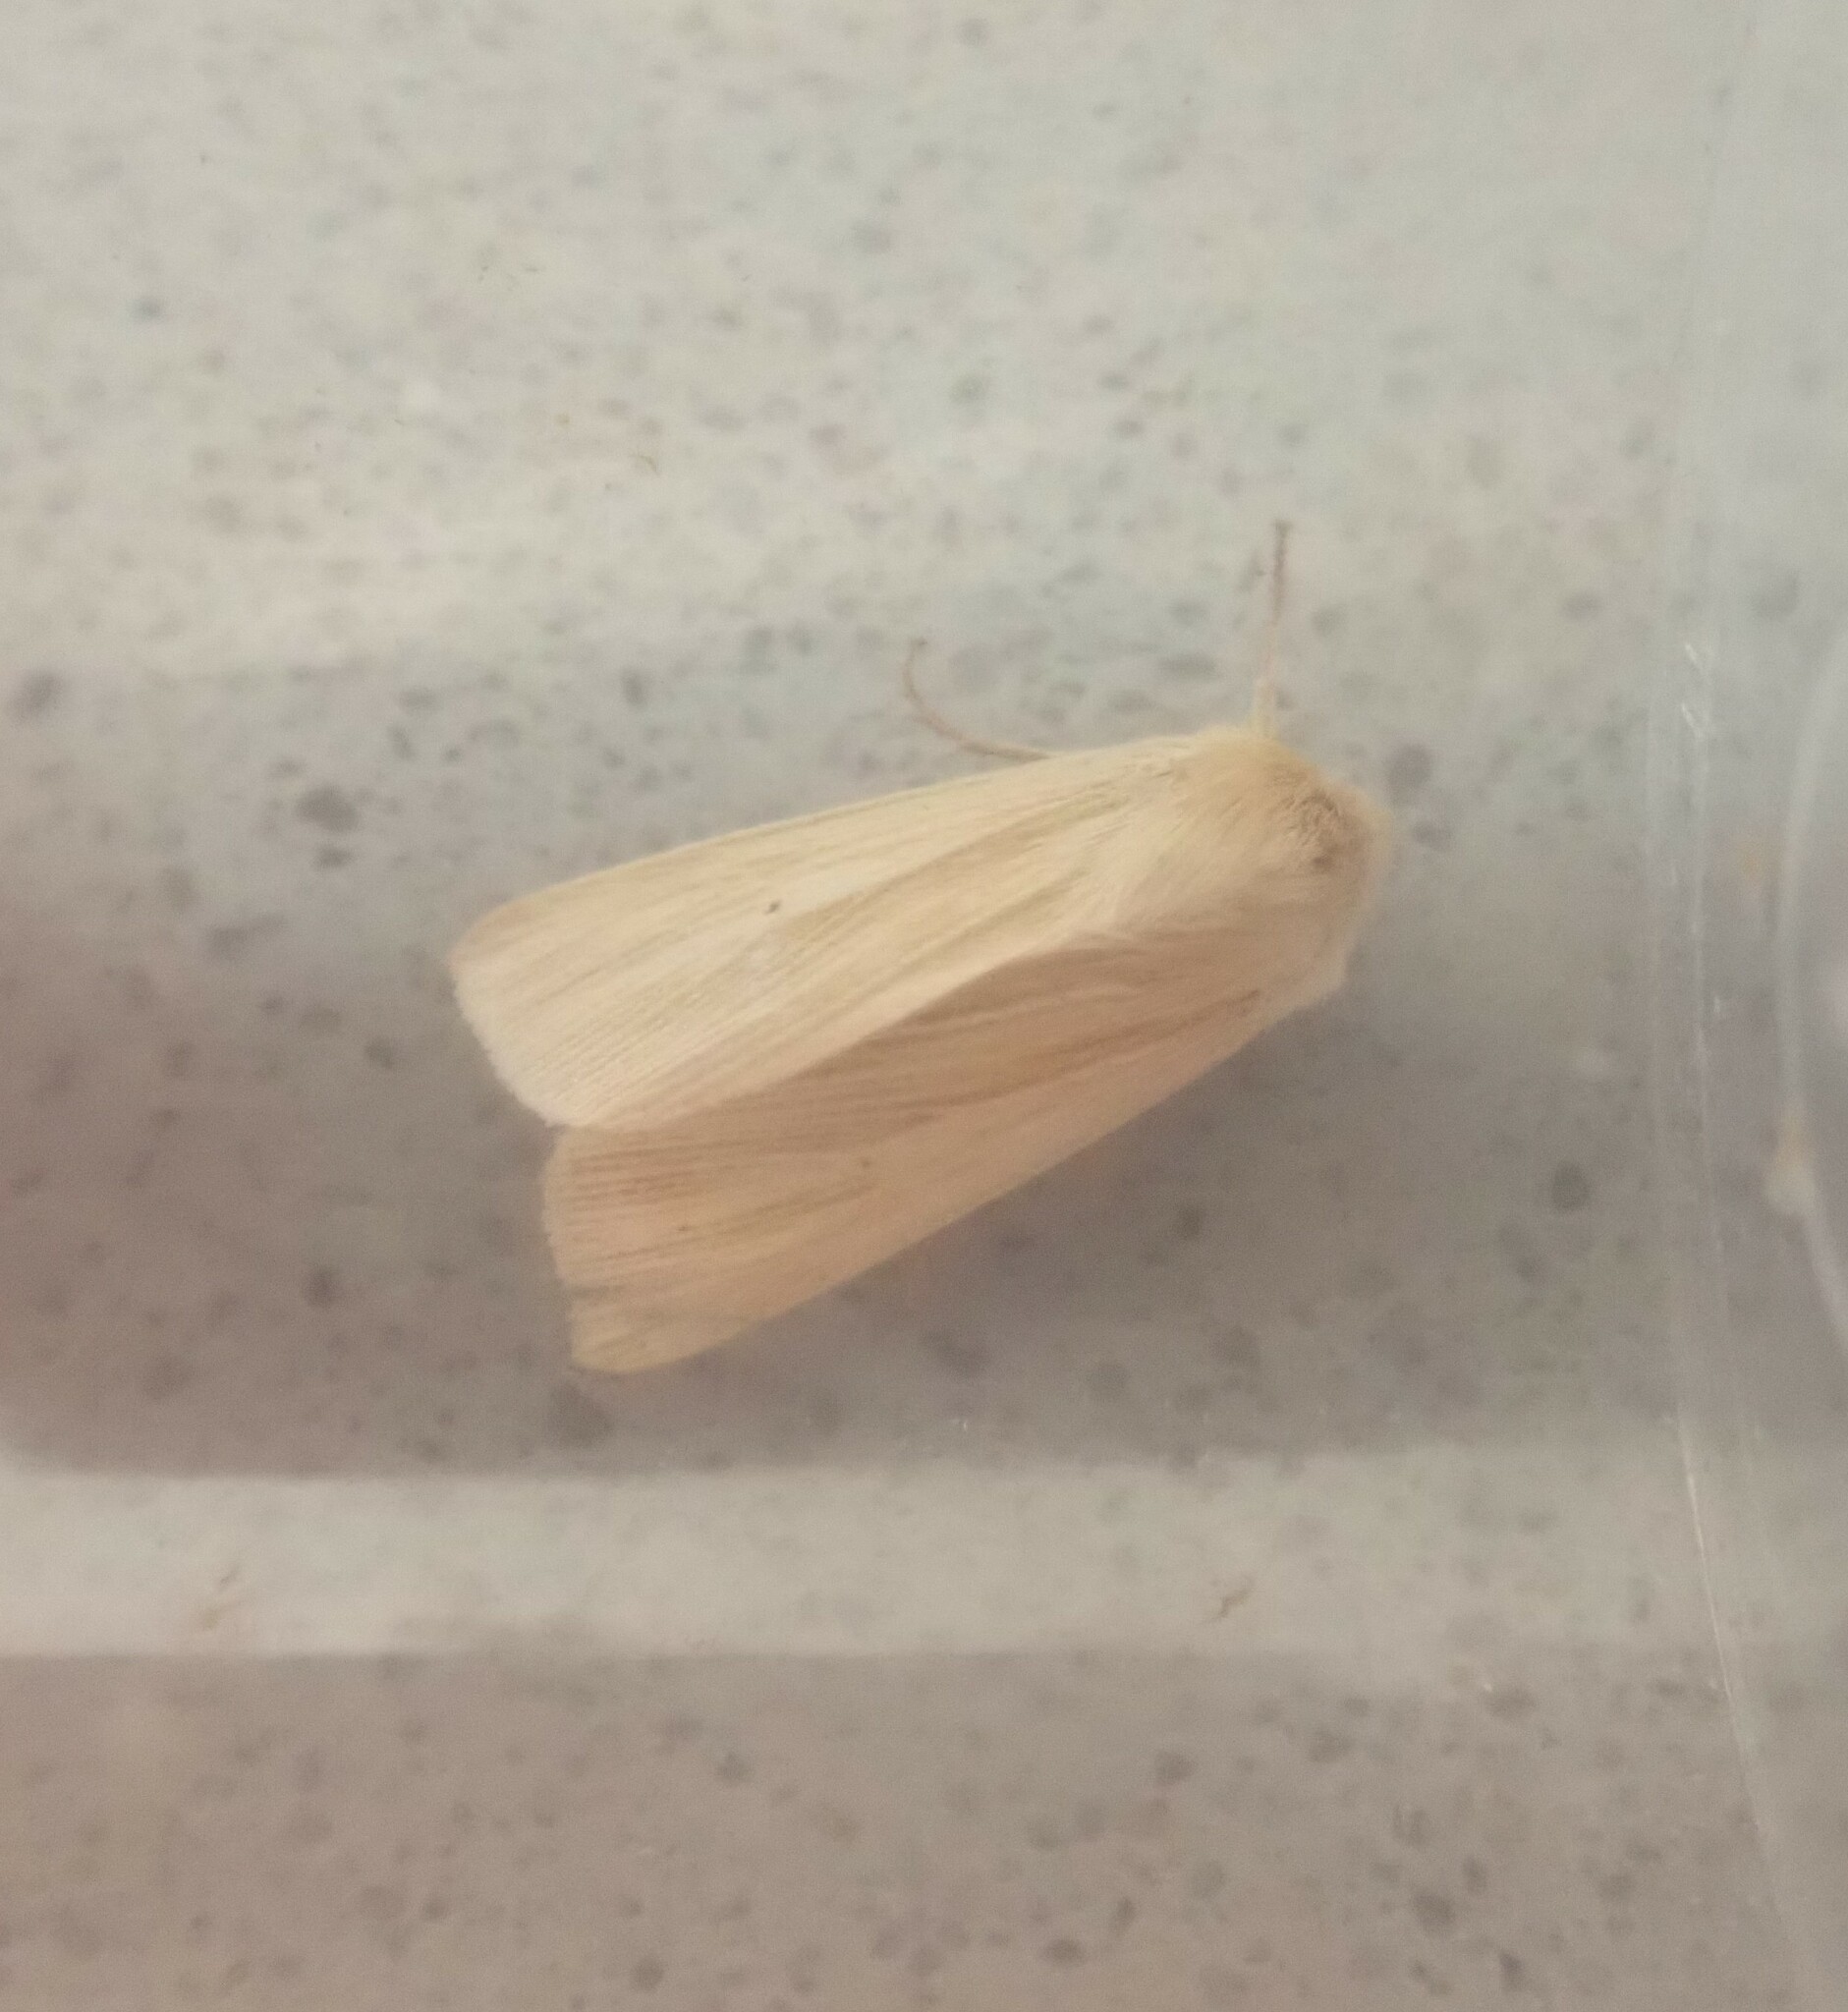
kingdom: Animalia
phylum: Arthropoda
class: Insecta
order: Lepidoptera
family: Noctuidae
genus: Mythimna
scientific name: Mythimna pallens
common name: Common wainscot
